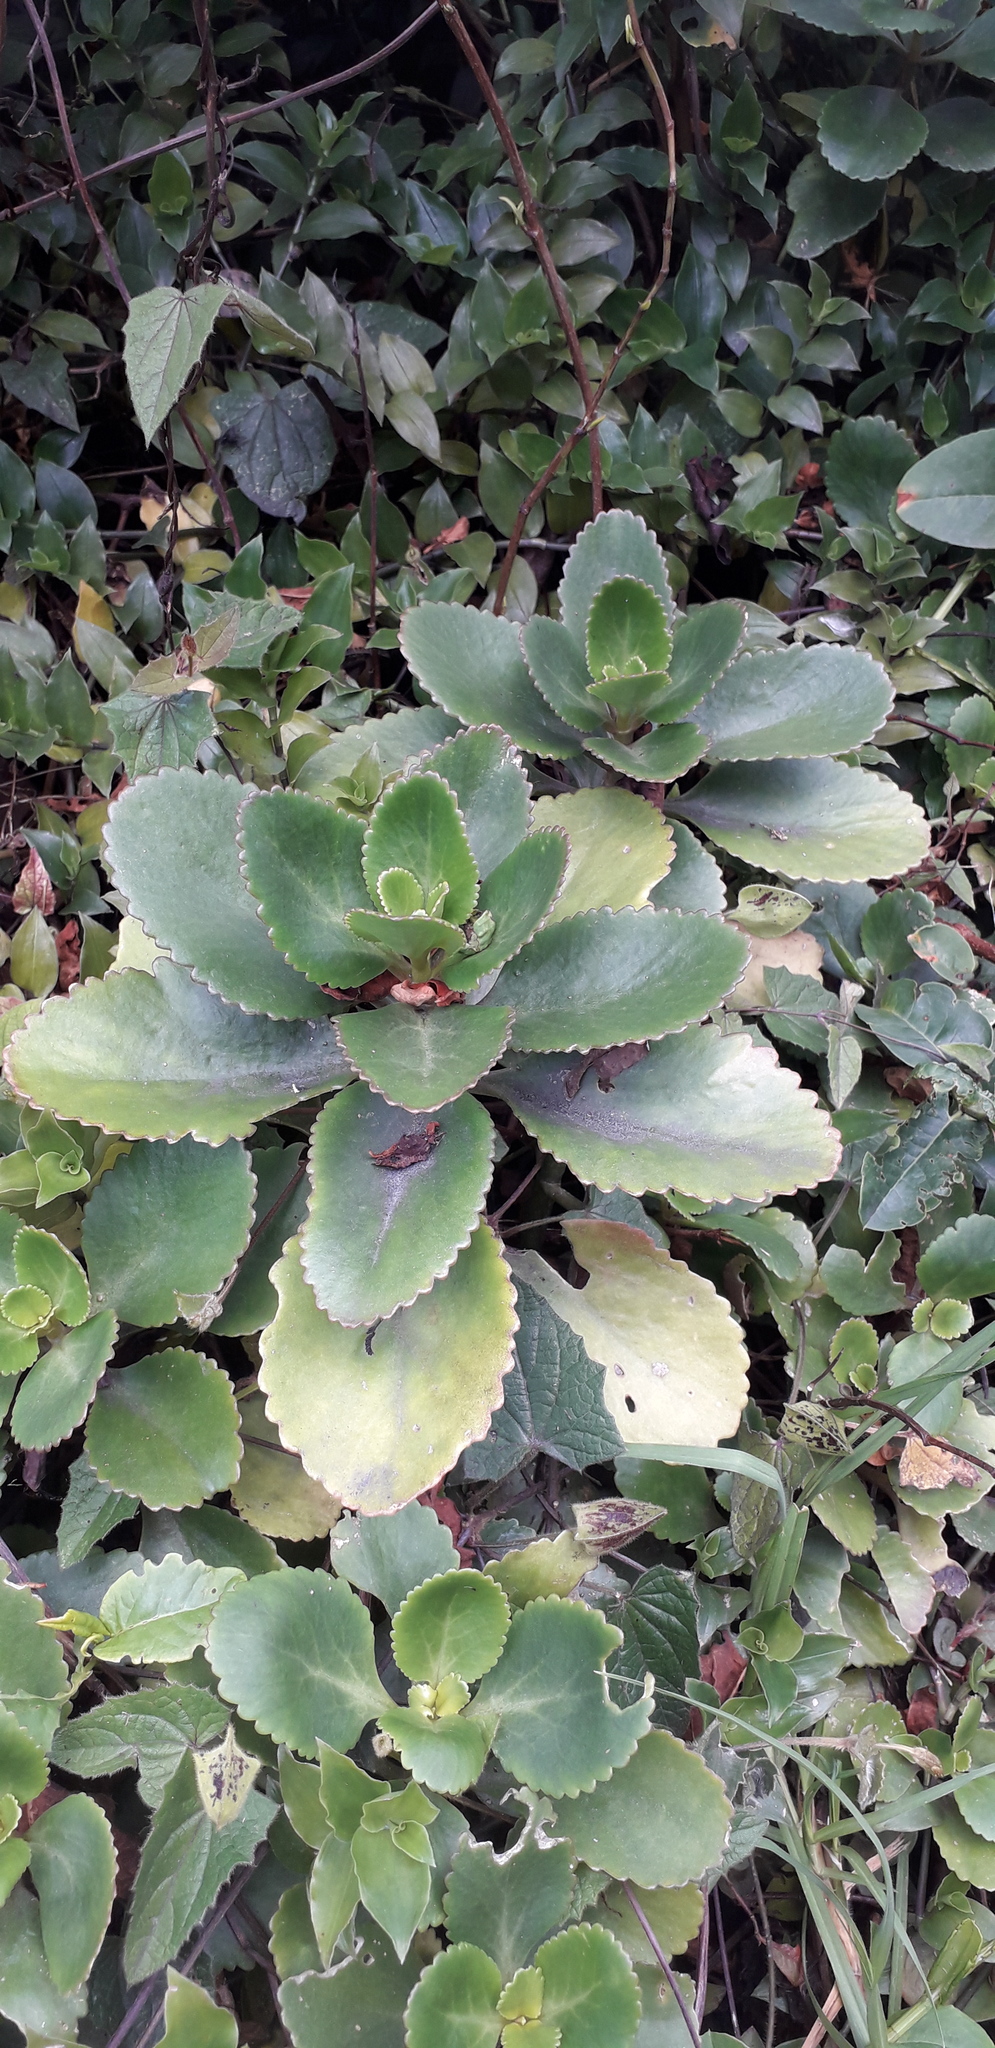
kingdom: Plantae
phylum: Tracheophyta
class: Magnoliopsida
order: Saxifragales
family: Crassulaceae
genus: Kalanchoe
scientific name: Kalanchoe densiflora
